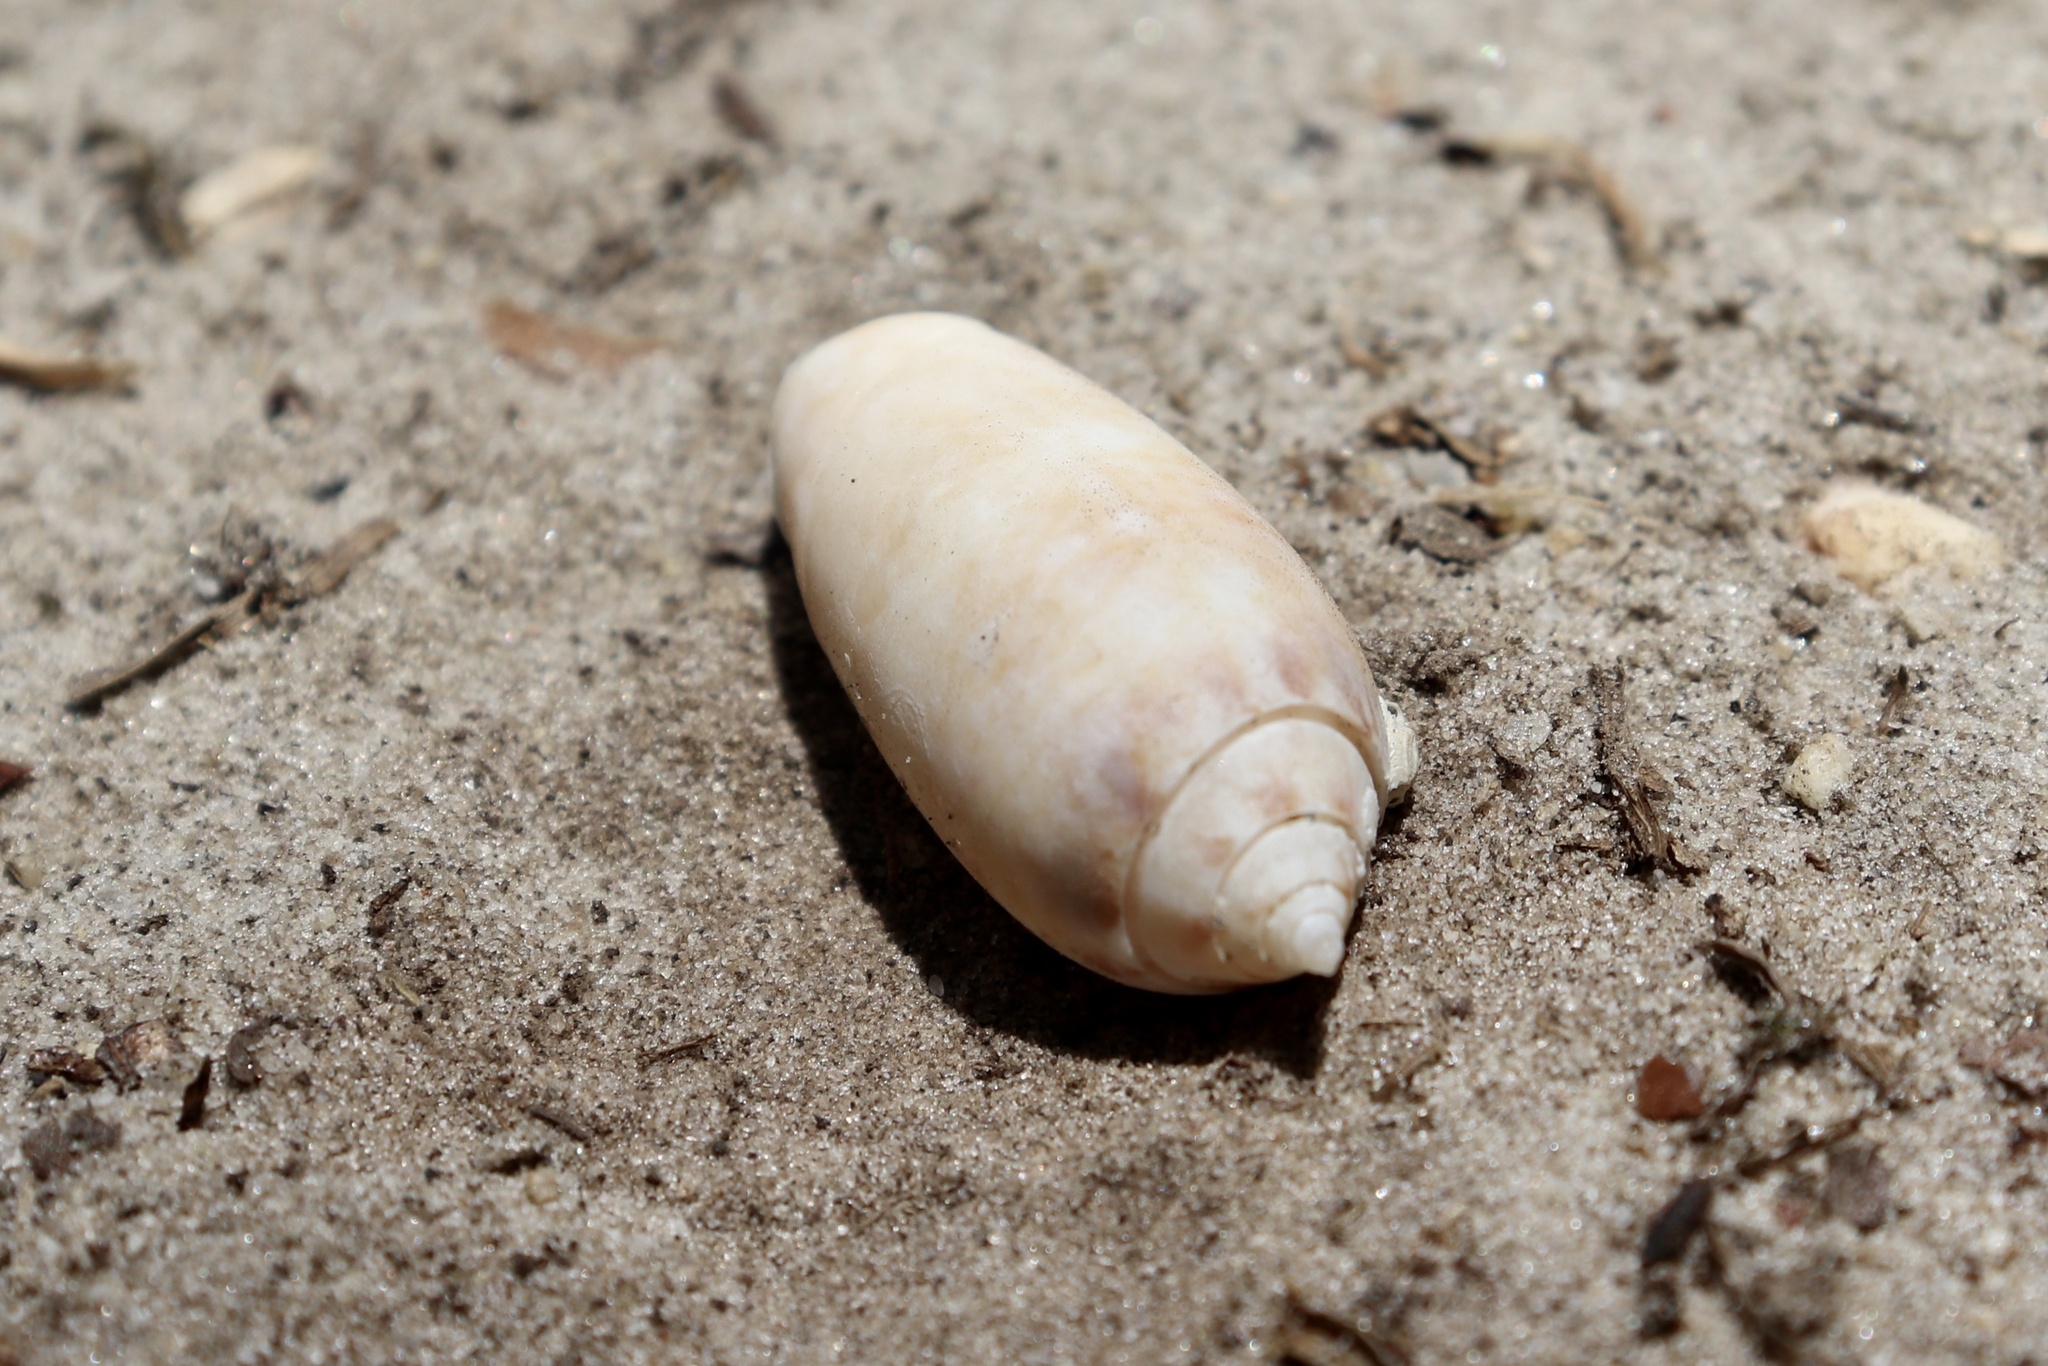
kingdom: Animalia
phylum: Mollusca
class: Gastropoda
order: Neogastropoda
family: Olividae
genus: Oliva
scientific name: Oliva sayana
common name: Lettered olive
